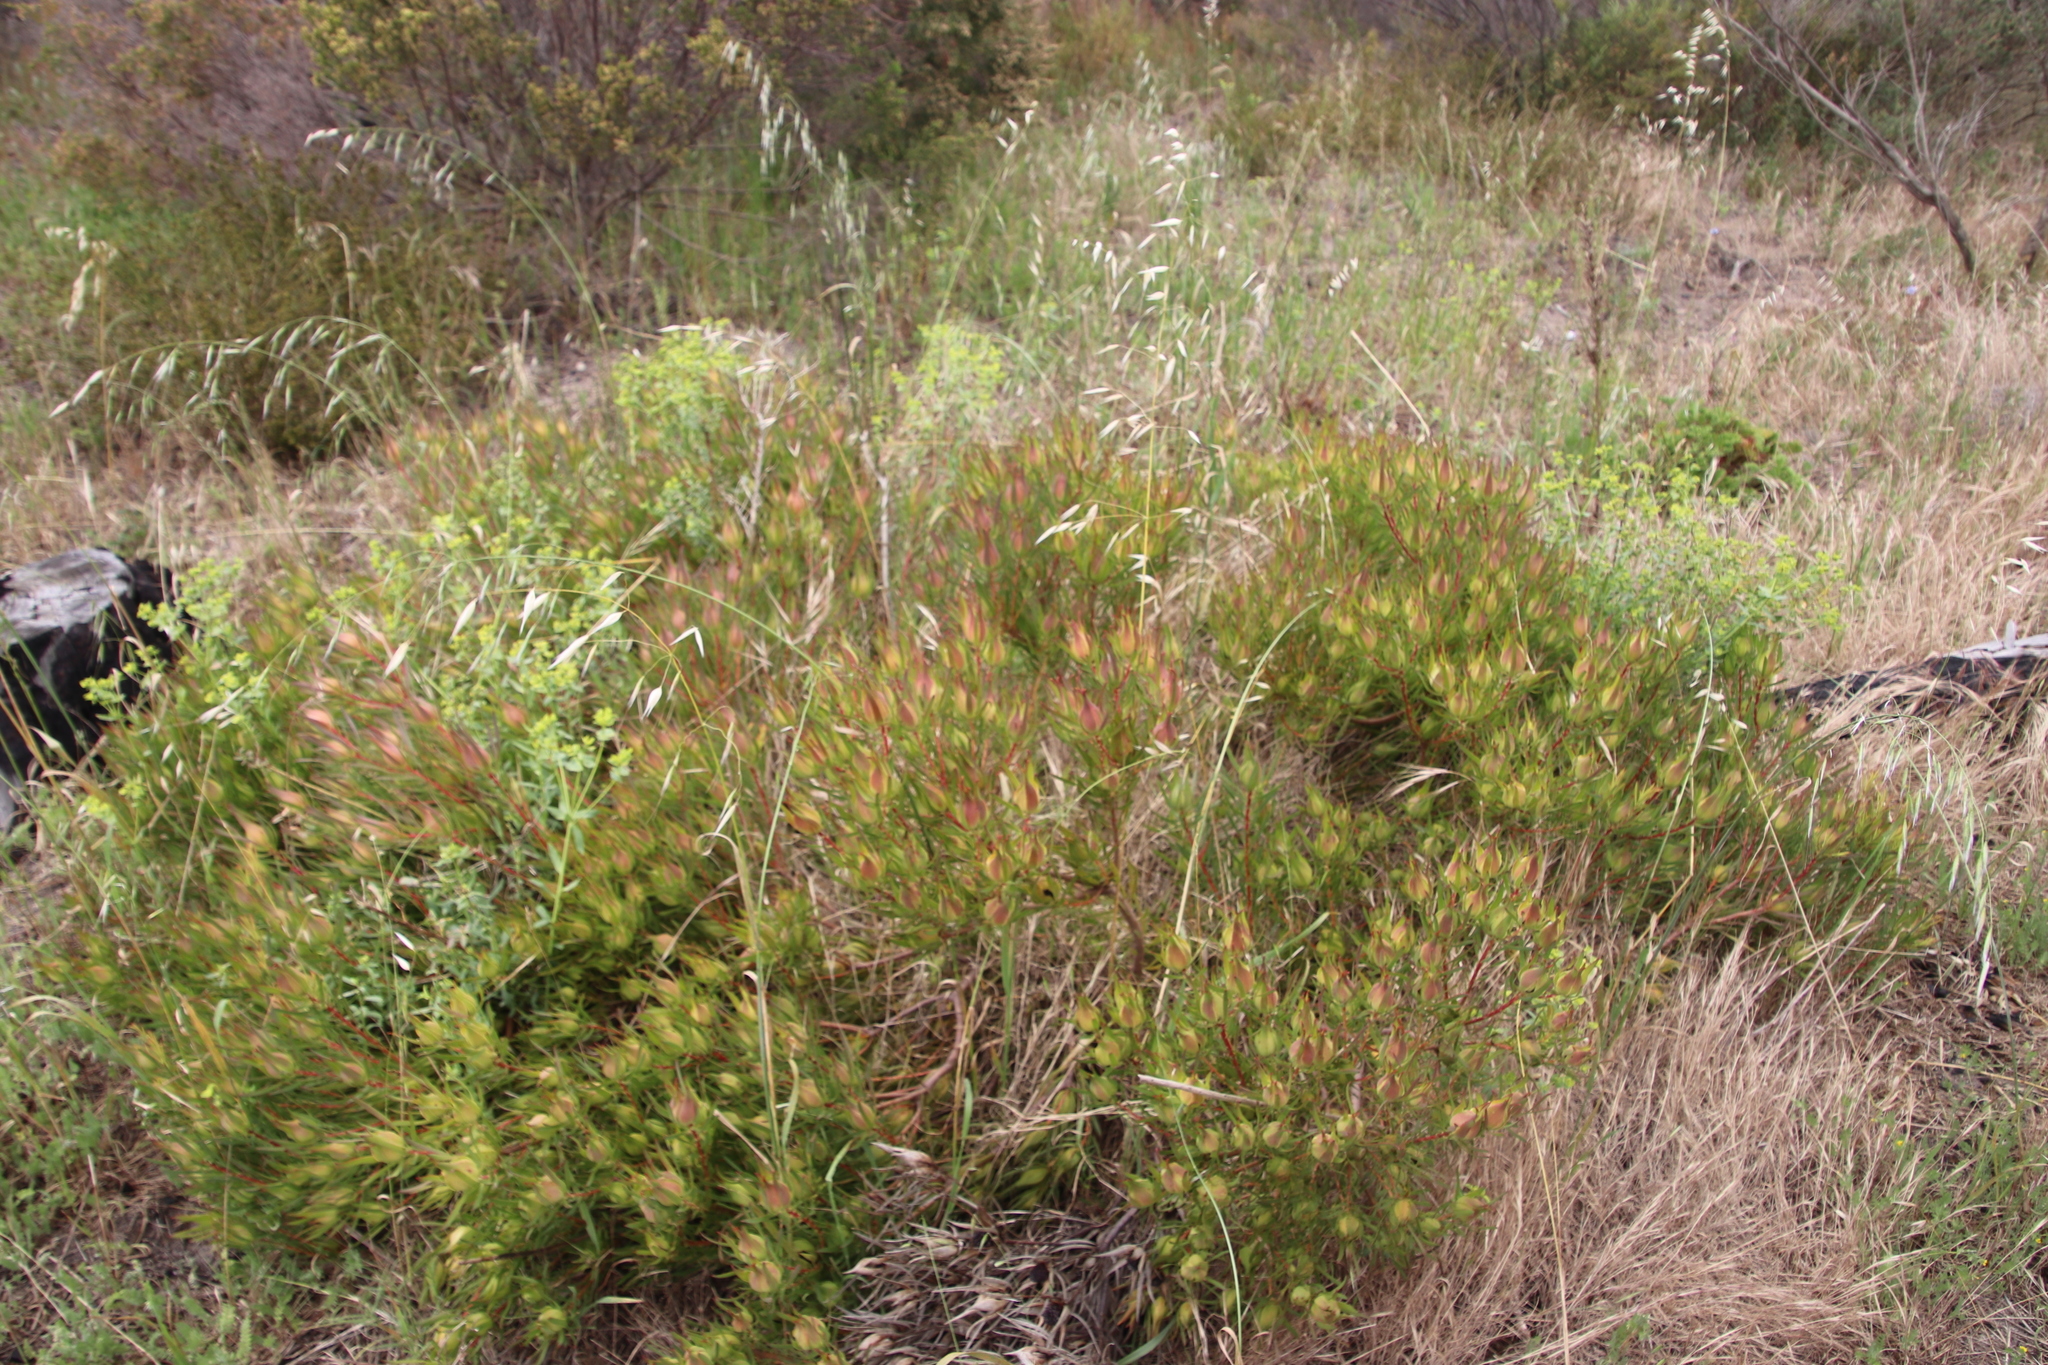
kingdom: Plantae
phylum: Tracheophyta
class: Magnoliopsida
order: Proteales
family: Proteaceae
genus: Leucadendron
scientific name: Leucadendron salignum
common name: Common sunshine conebush
